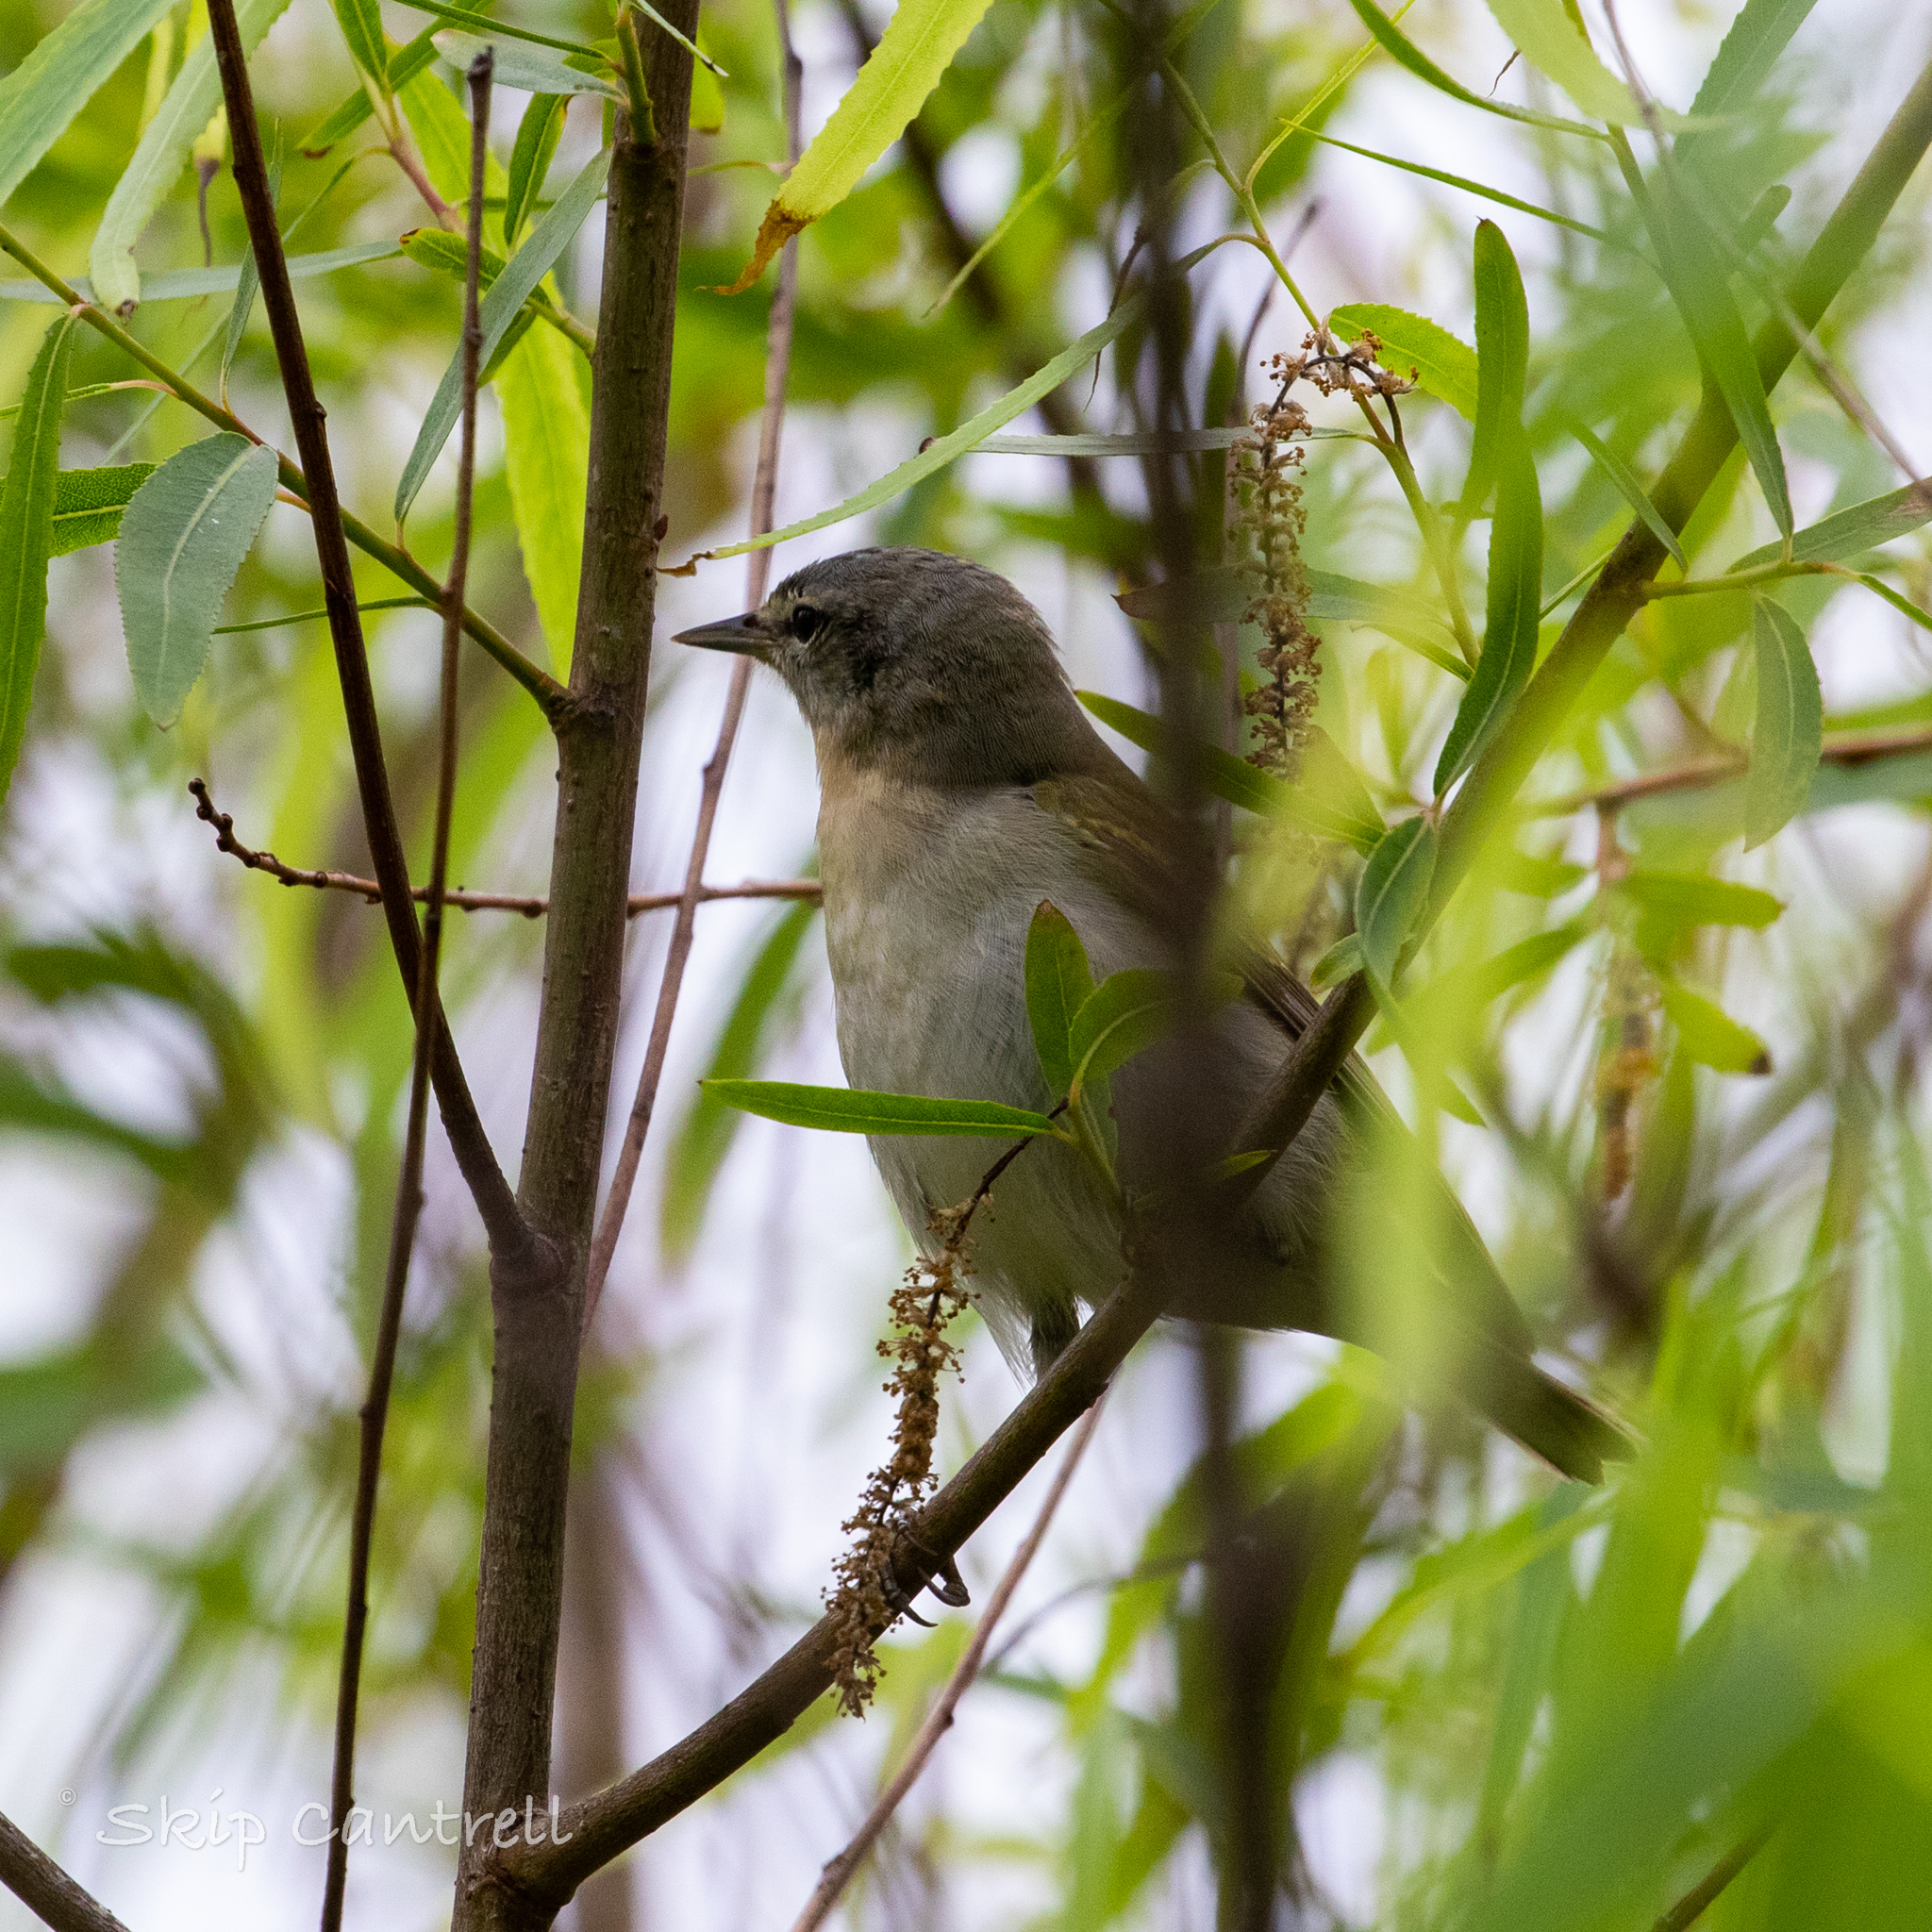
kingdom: Animalia
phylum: Chordata
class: Aves
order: Passeriformes
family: Parulidae
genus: Leiothlypis
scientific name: Leiothlypis peregrina
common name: Tennessee warbler
